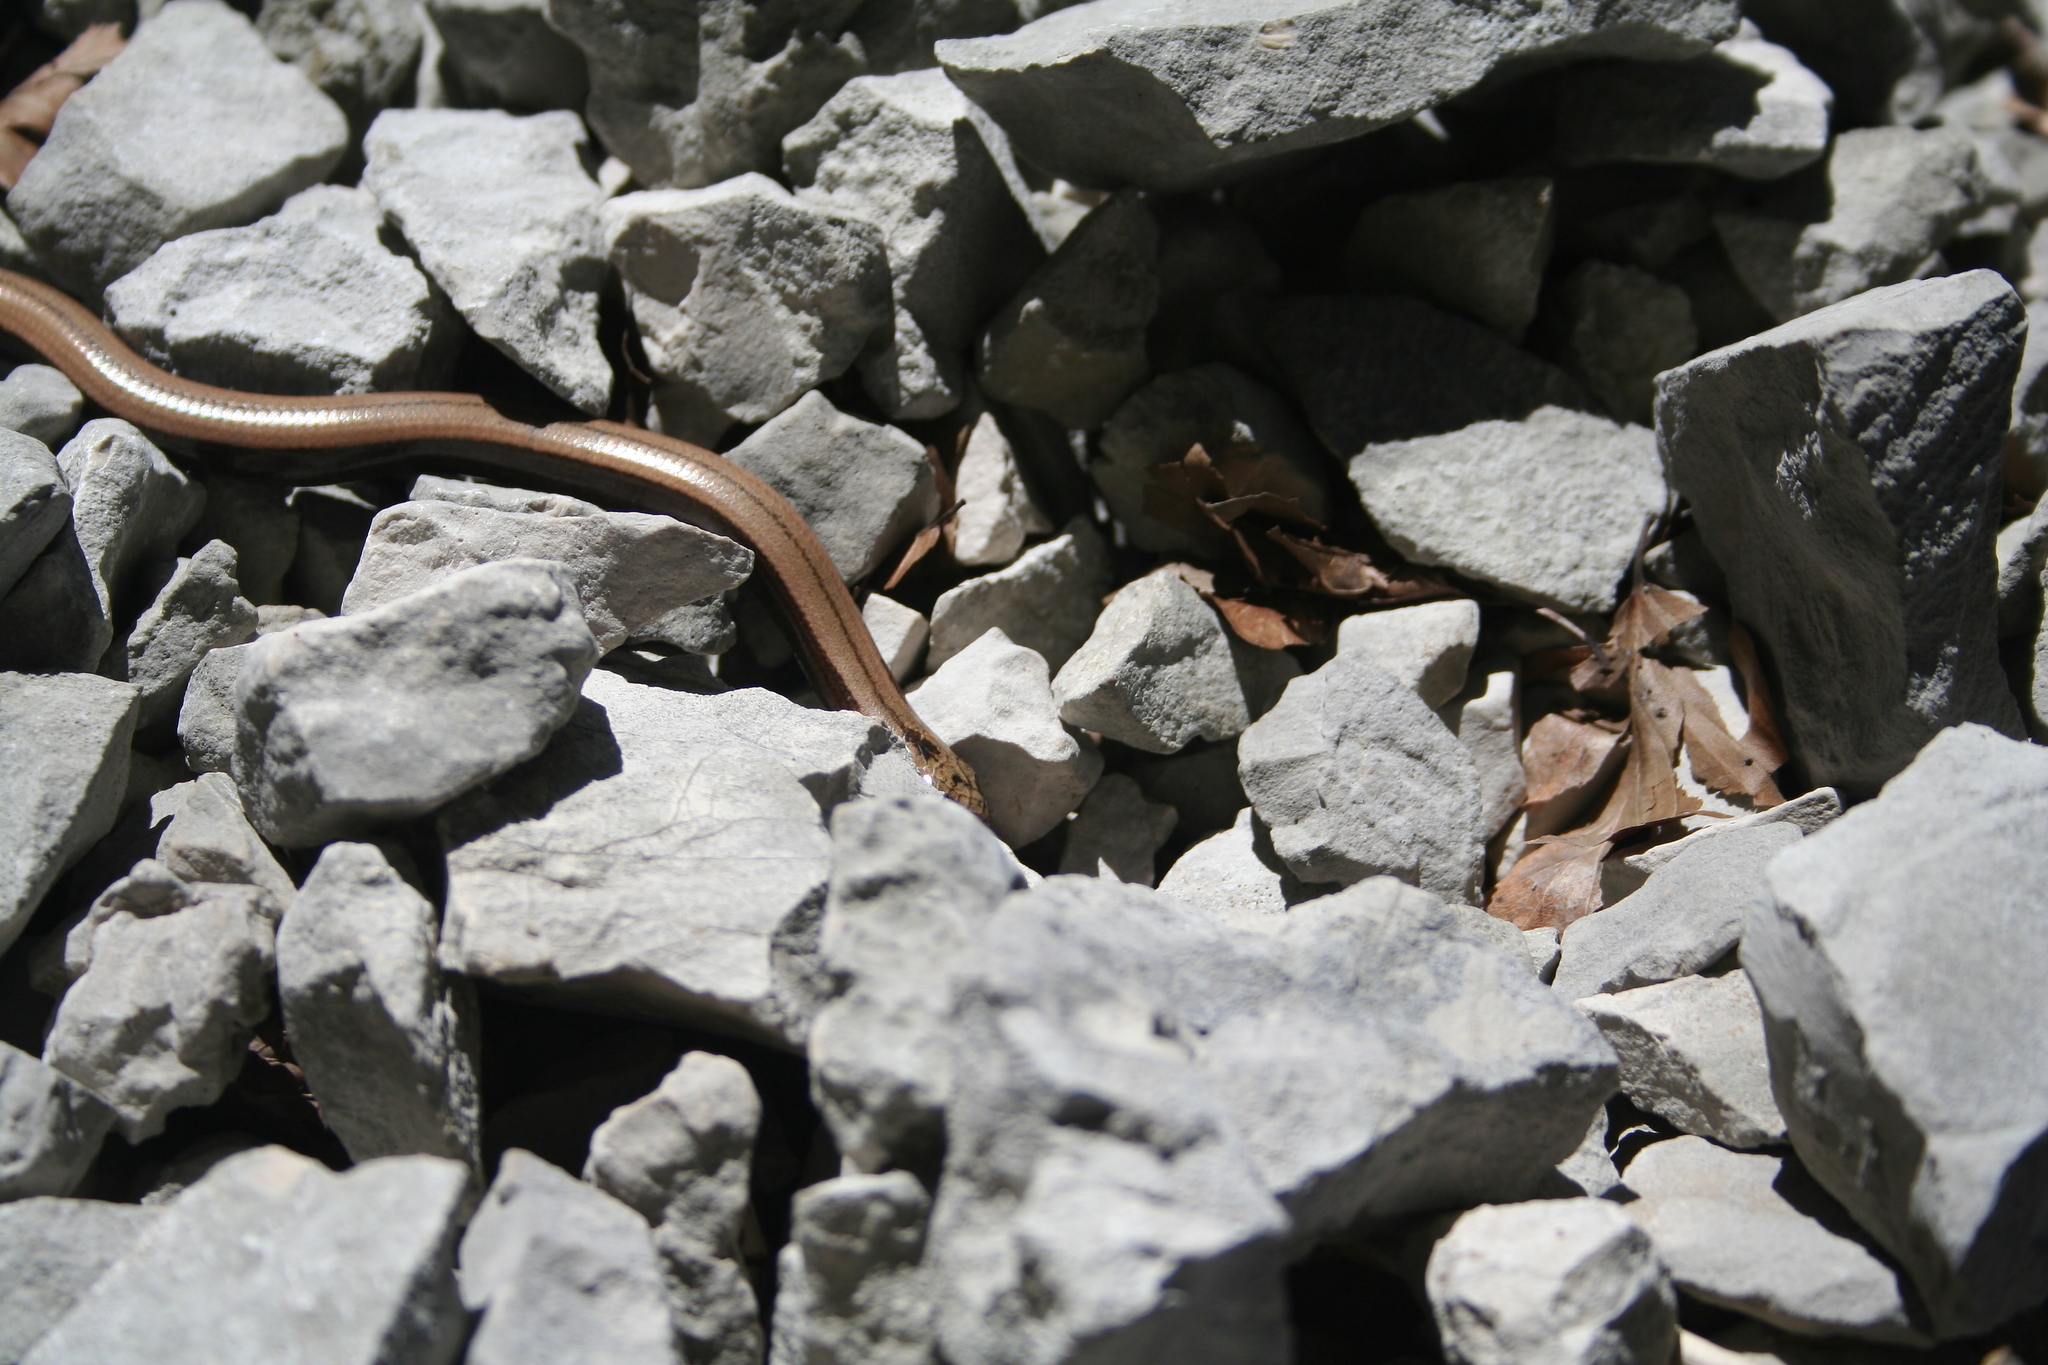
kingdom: Animalia
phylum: Chordata
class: Squamata
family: Anguidae
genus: Anguis
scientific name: Anguis fragilis
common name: Slow worm
